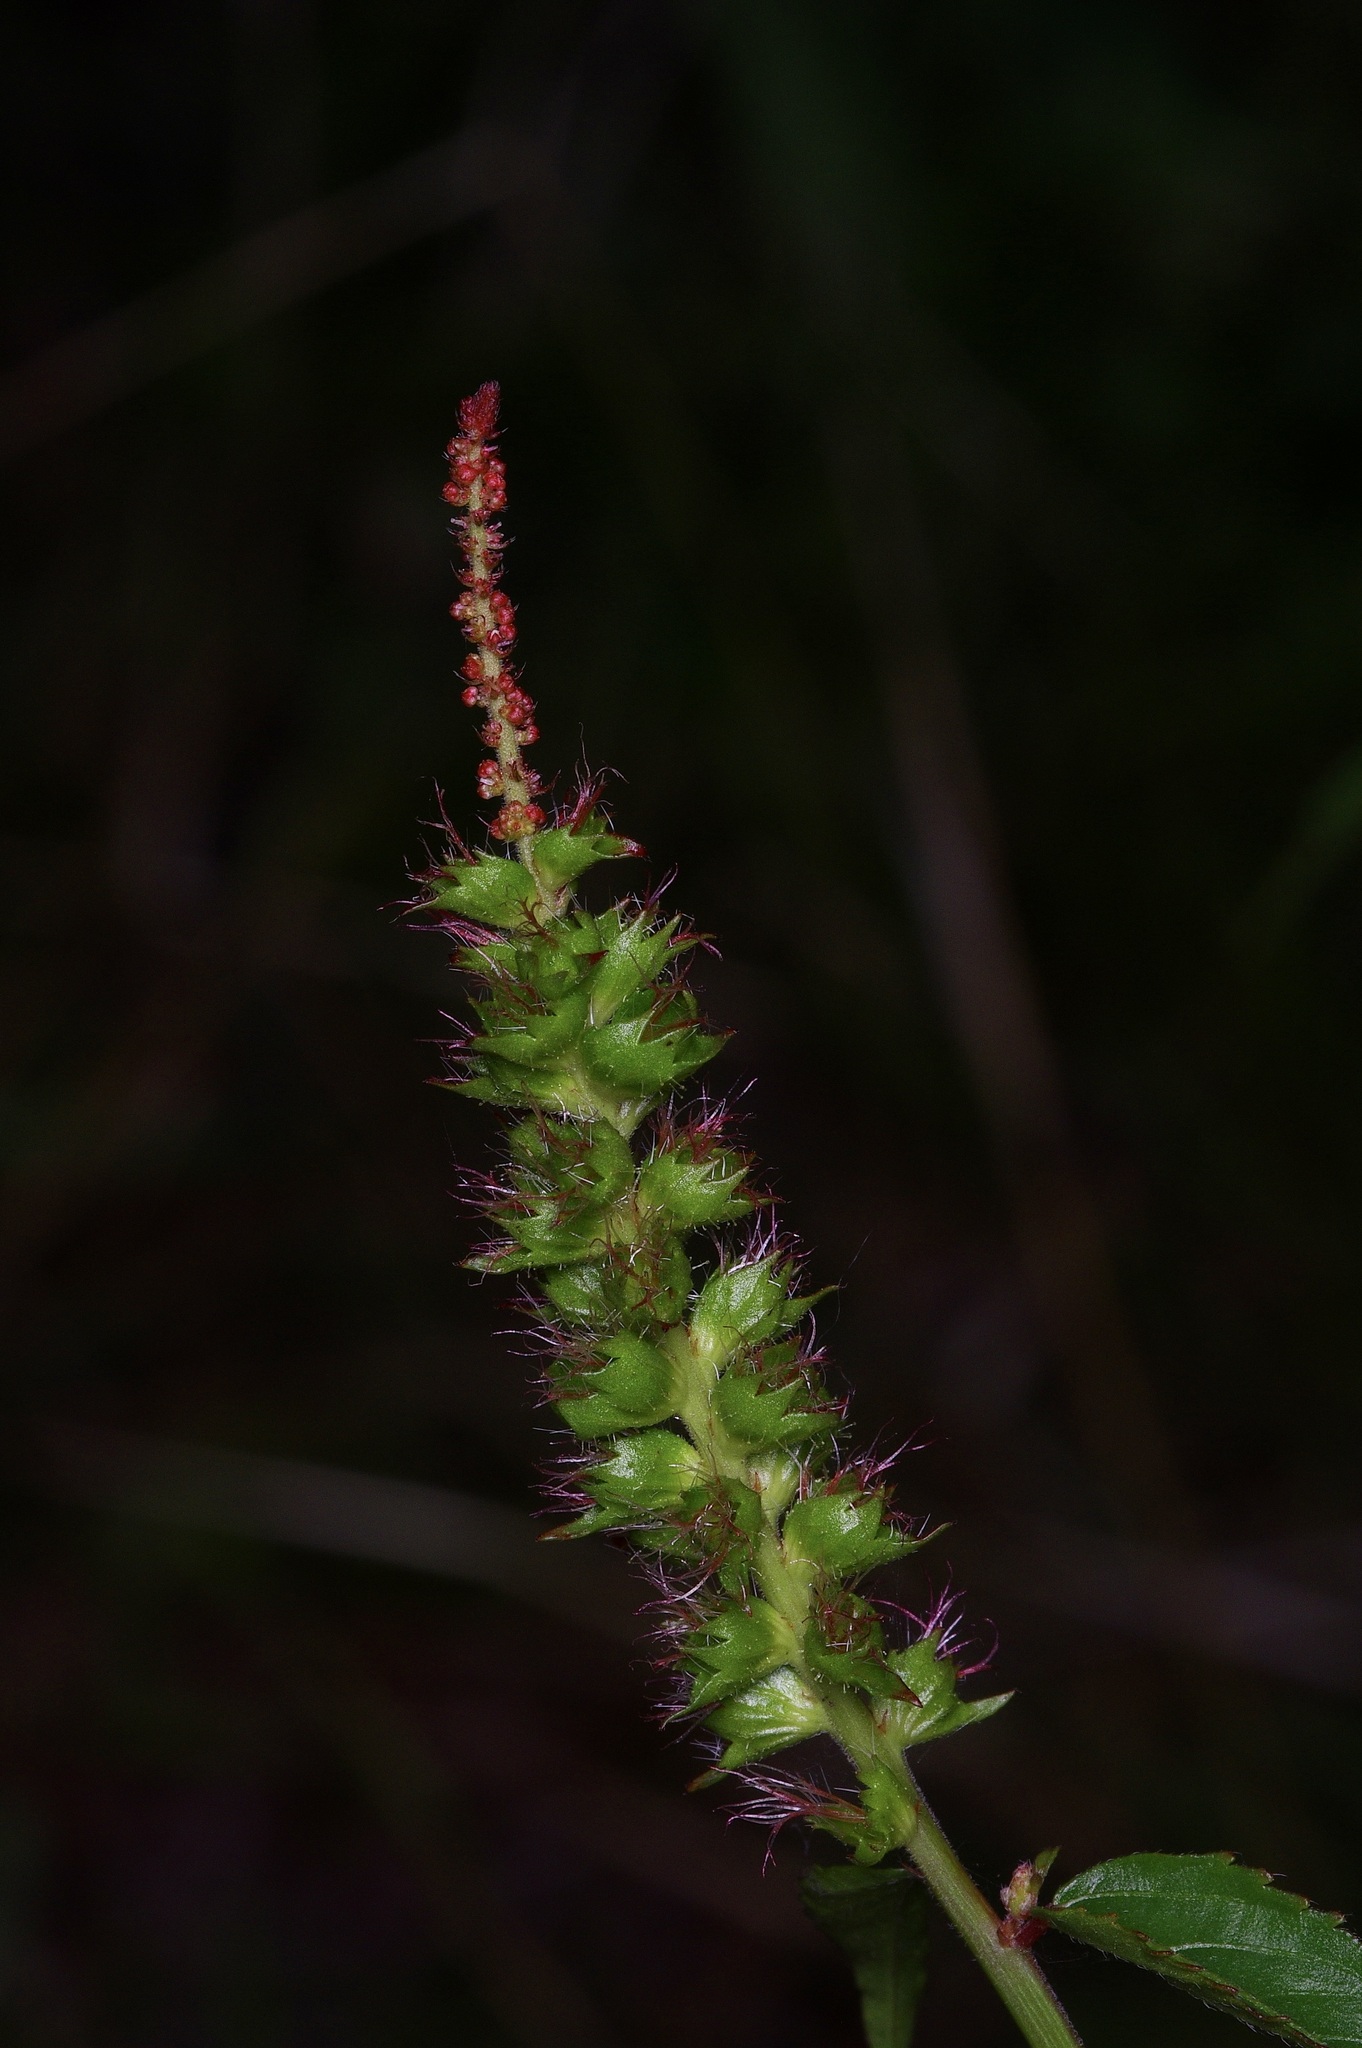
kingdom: Plantae
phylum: Tracheophyta
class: Magnoliopsida
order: Malpighiales
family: Euphorbiaceae
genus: Acalypha
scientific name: Acalypha phleoides
